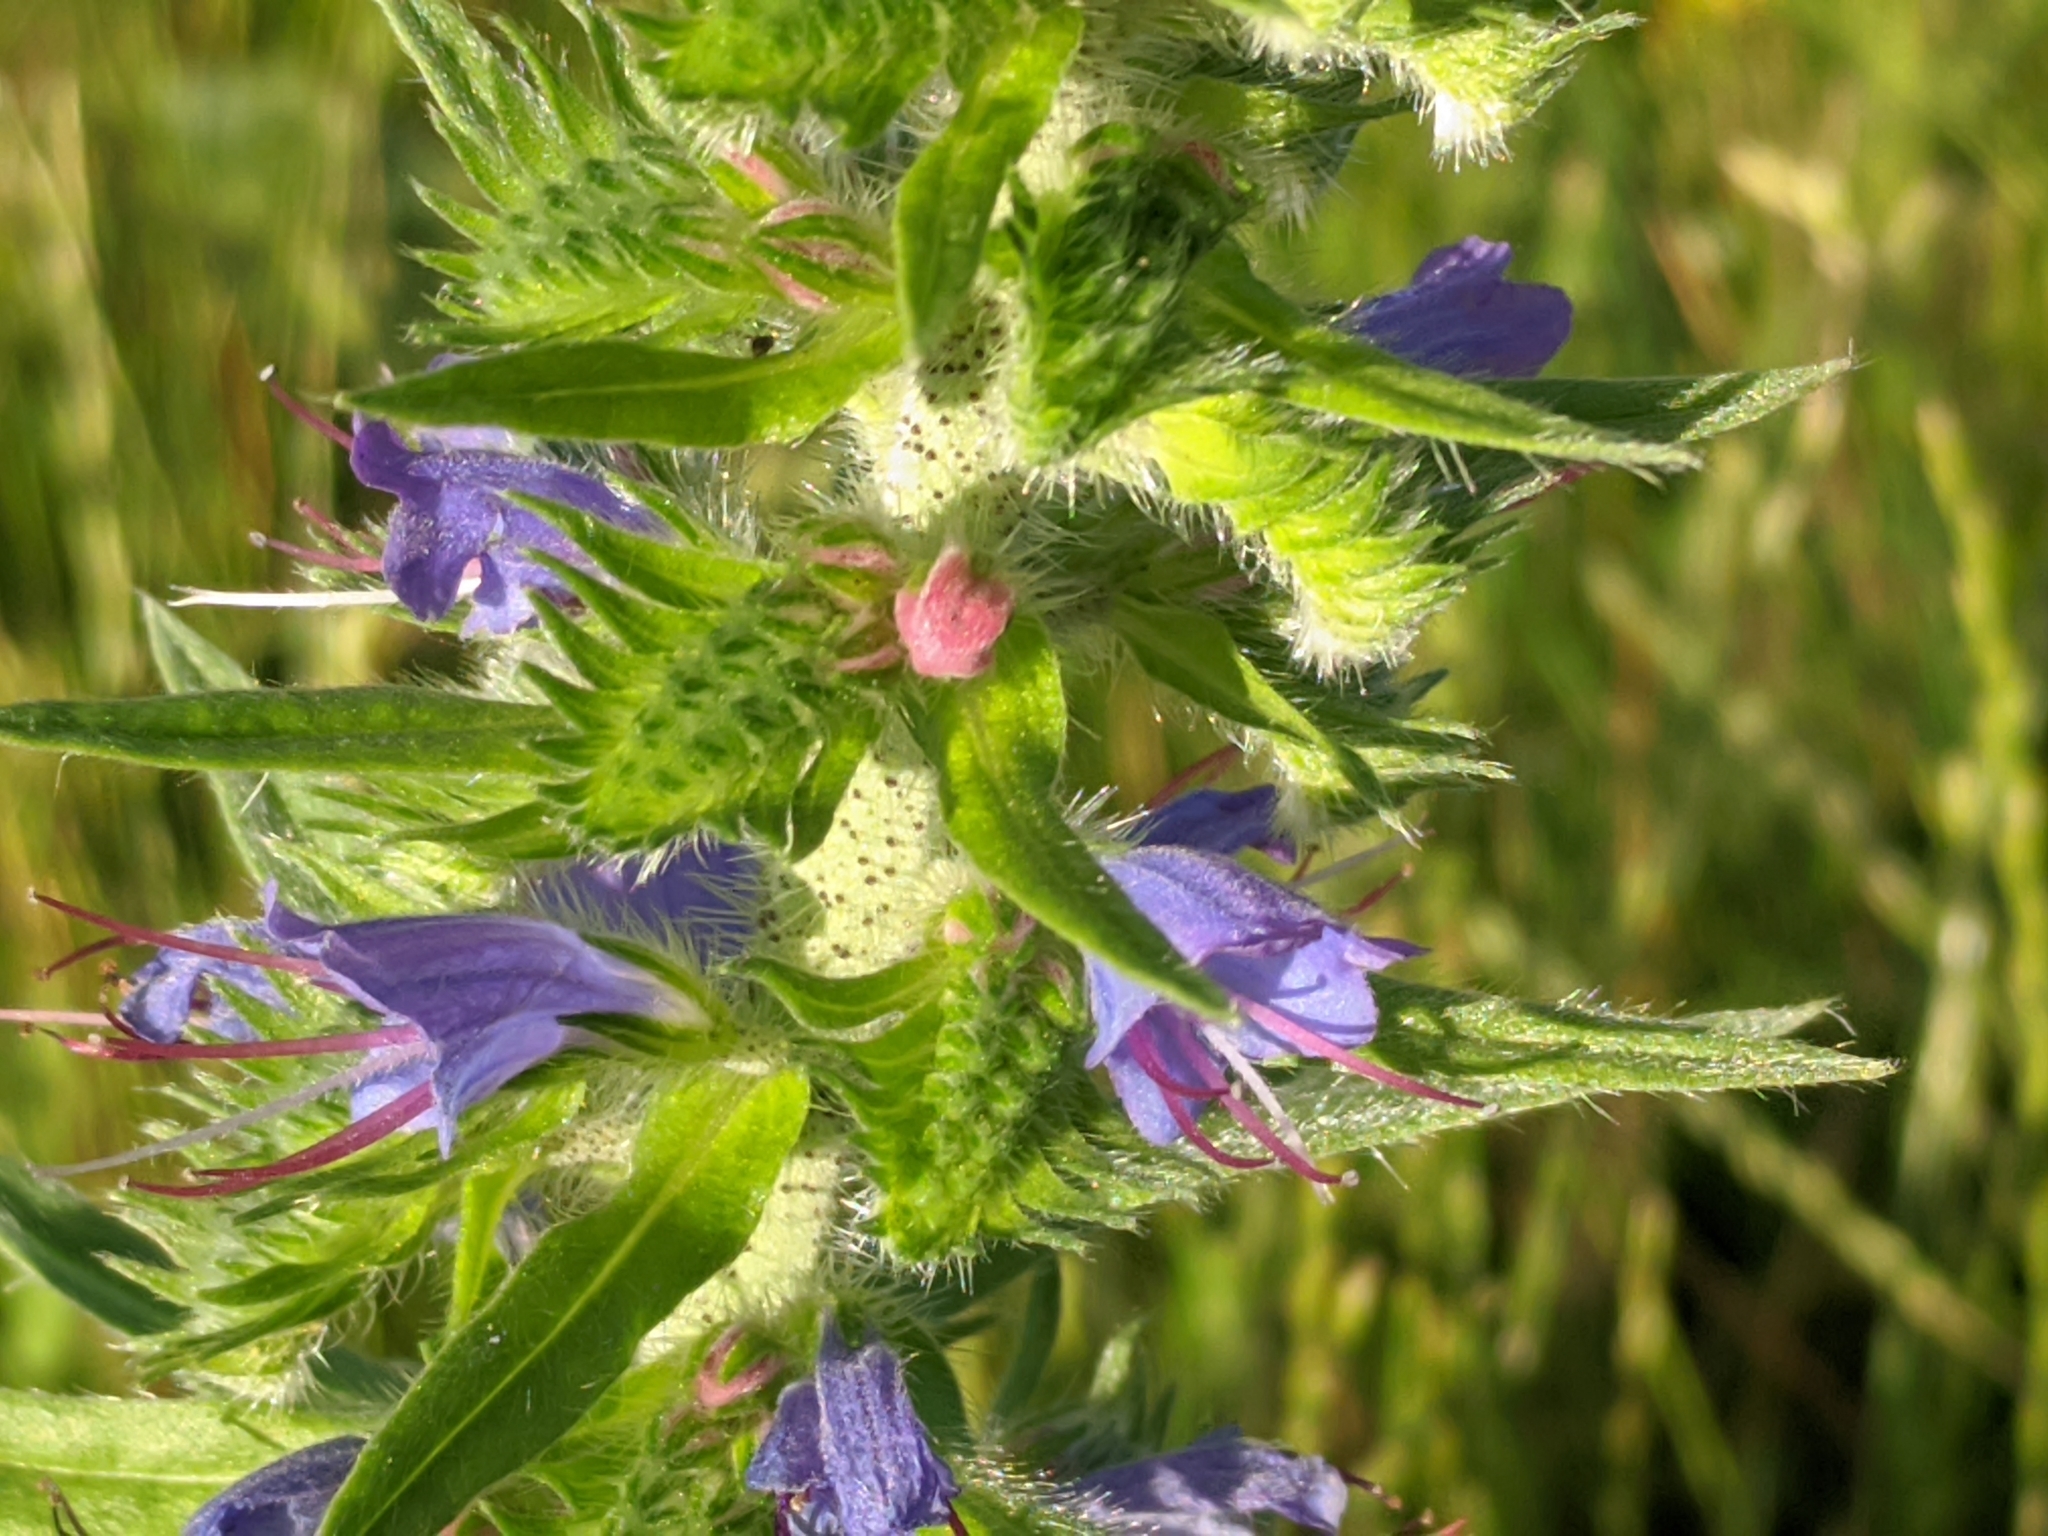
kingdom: Plantae
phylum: Tracheophyta
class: Magnoliopsida
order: Boraginales
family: Boraginaceae
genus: Echium
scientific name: Echium vulgare
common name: Common viper's bugloss
